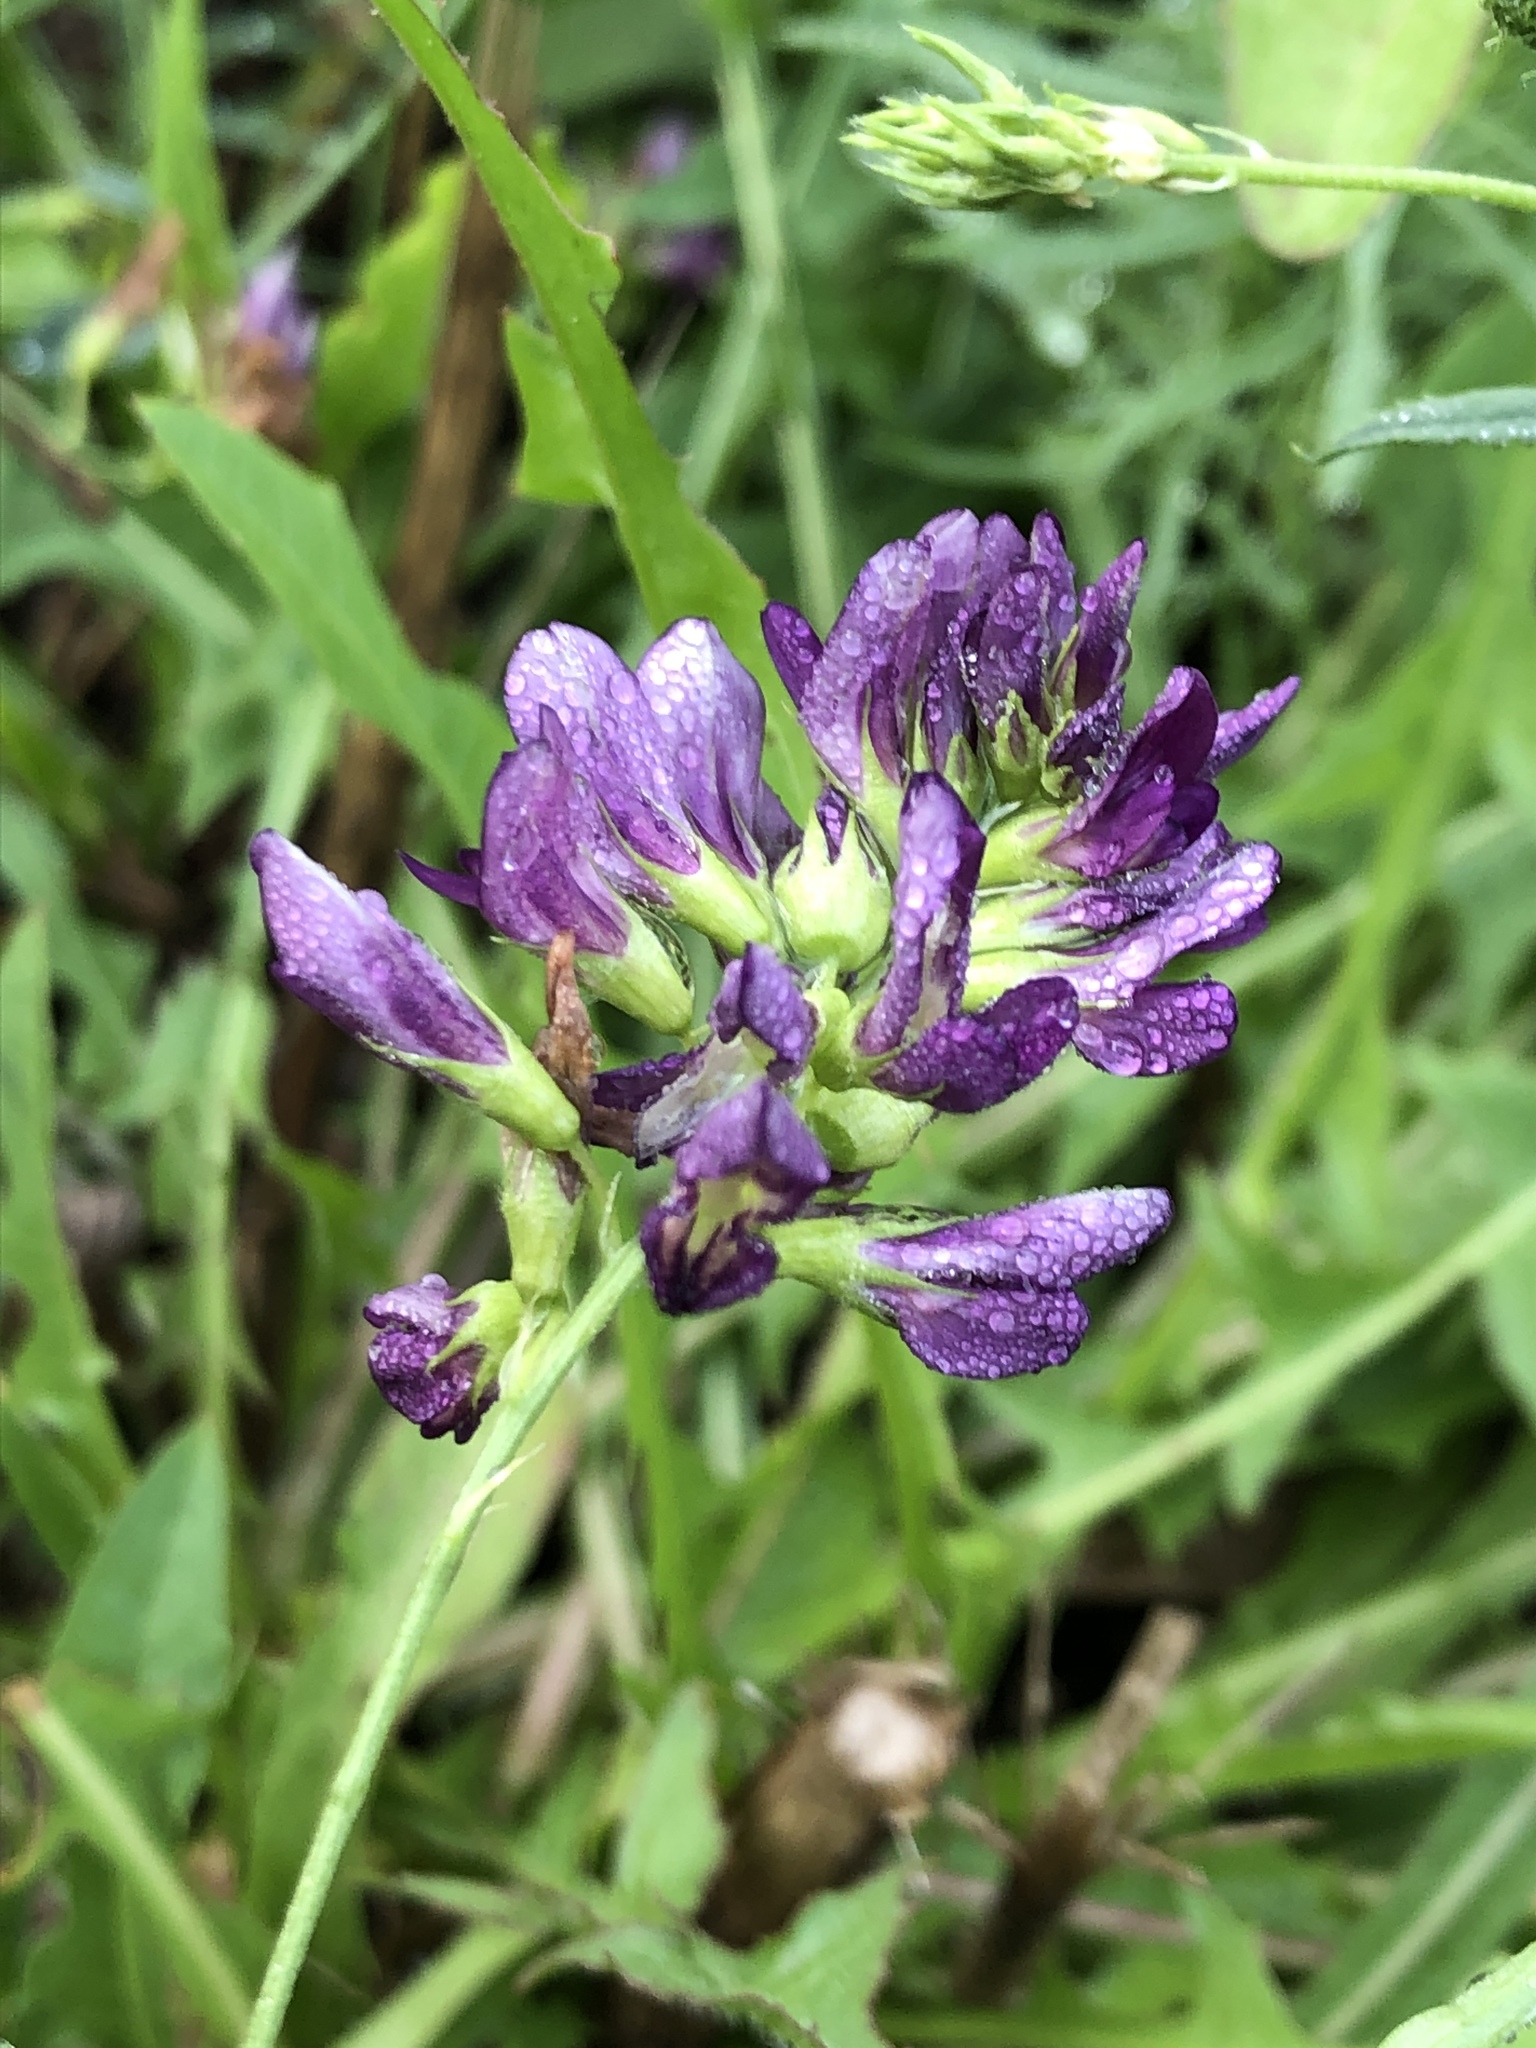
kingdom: Plantae
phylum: Tracheophyta
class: Magnoliopsida
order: Fabales
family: Fabaceae
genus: Medicago
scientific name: Medicago varia
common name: Sand lucerne
